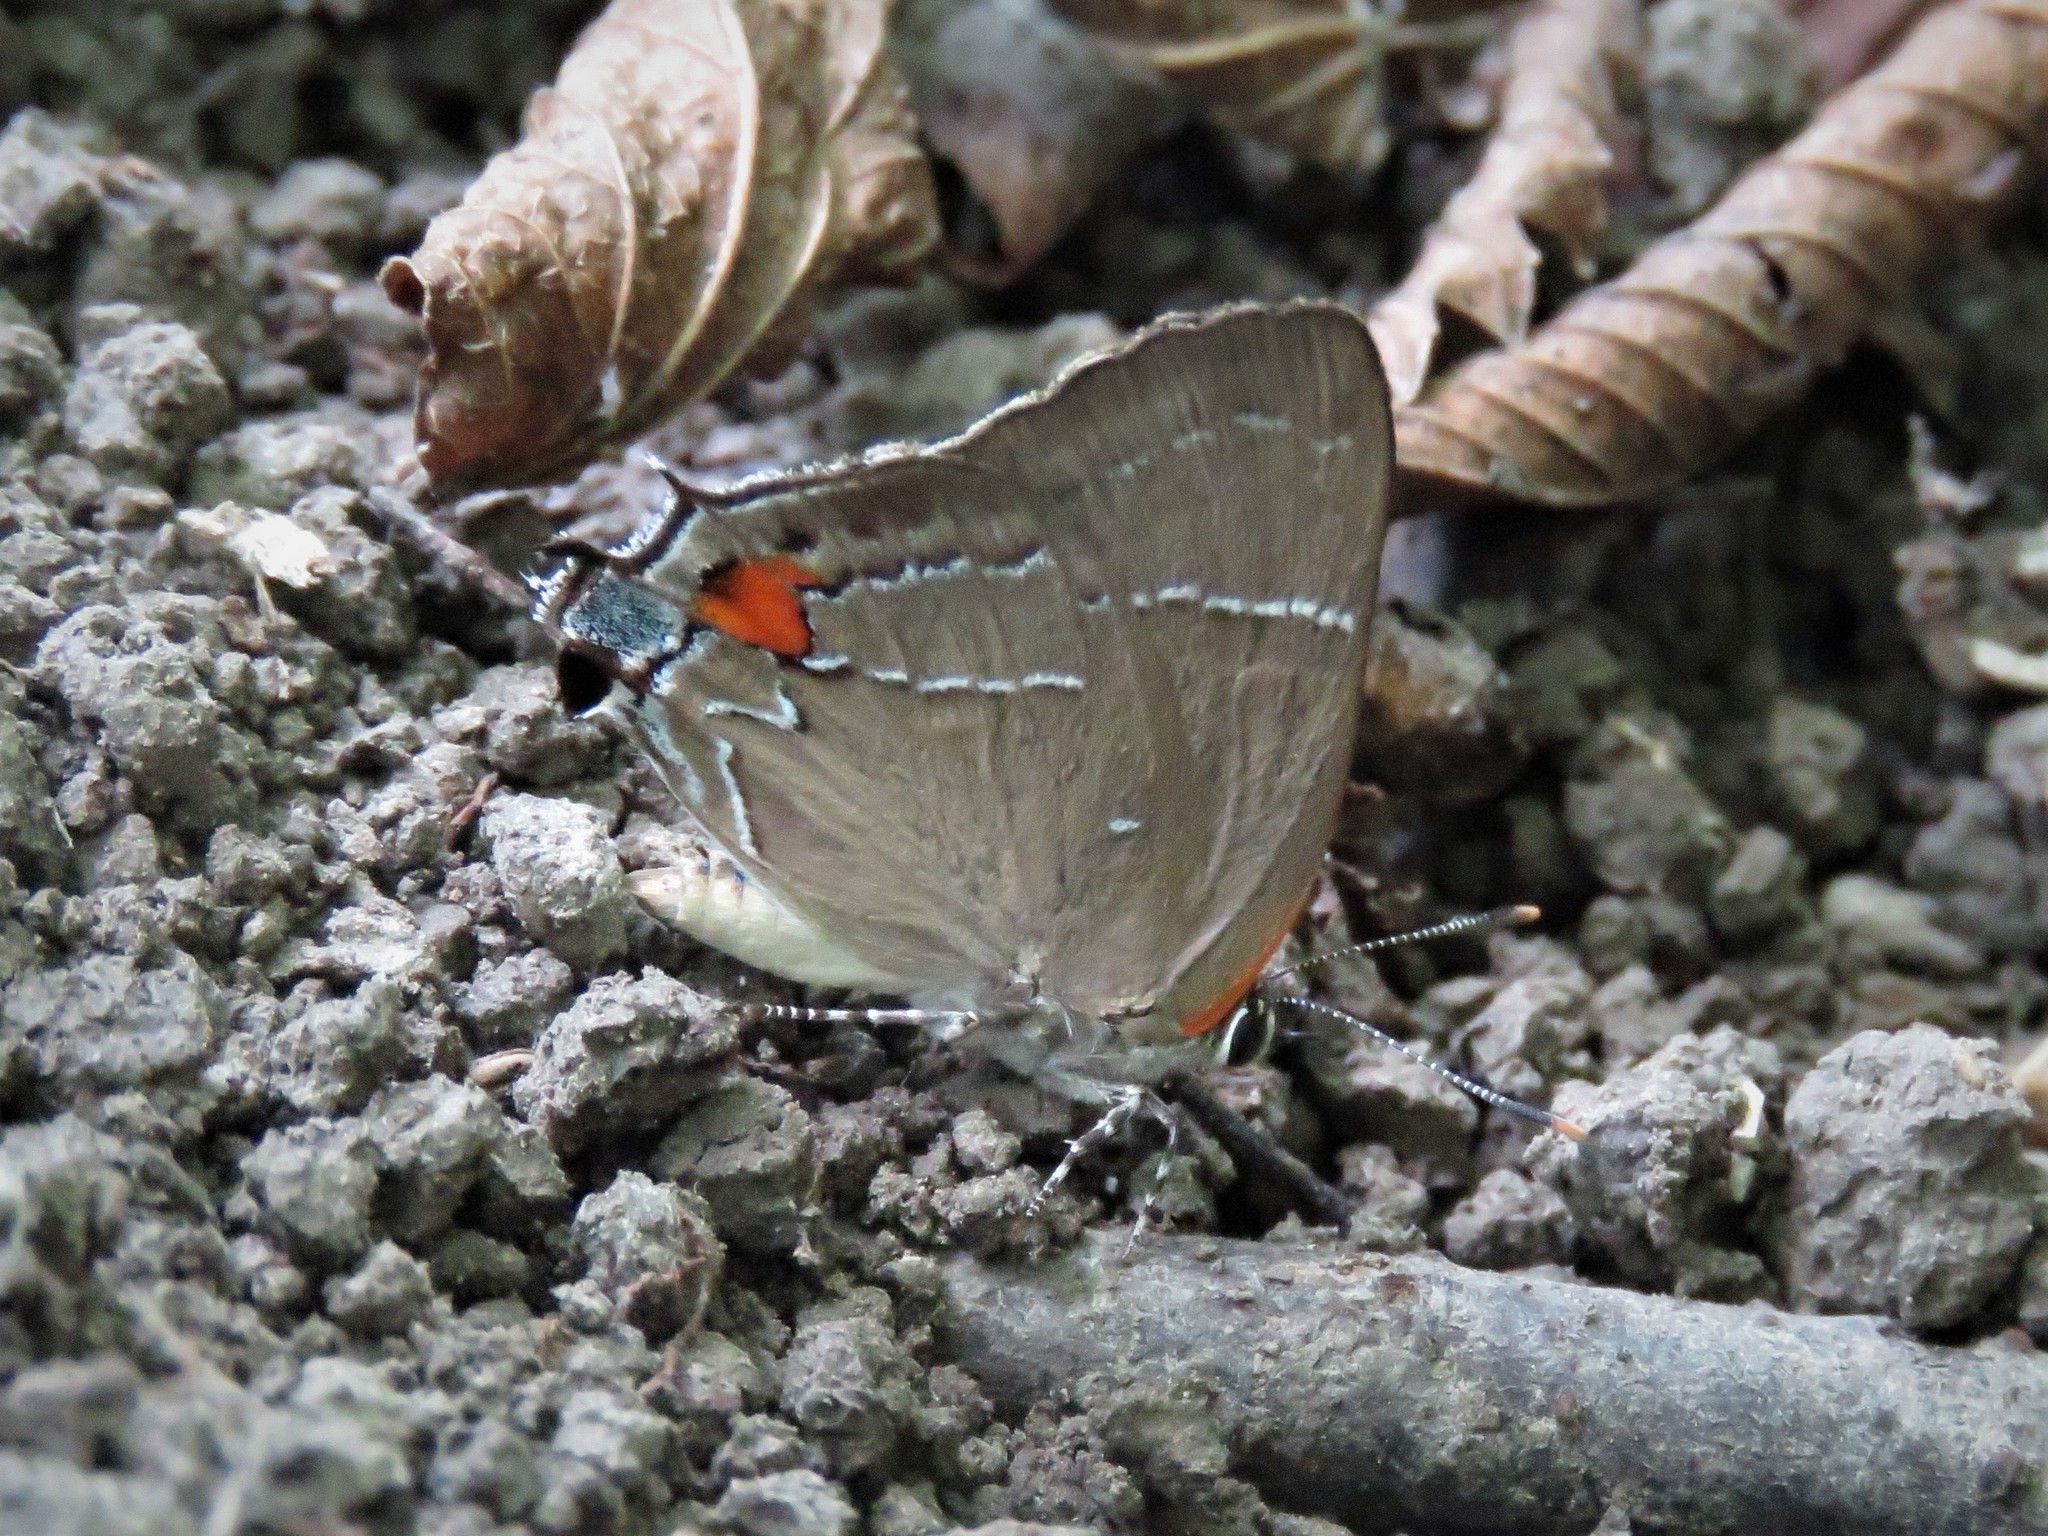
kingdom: Animalia
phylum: Arthropoda
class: Insecta
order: Lepidoptera
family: Lycaenidae
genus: Parrhasius
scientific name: Parrhasius m-album
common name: White m hairstreak
